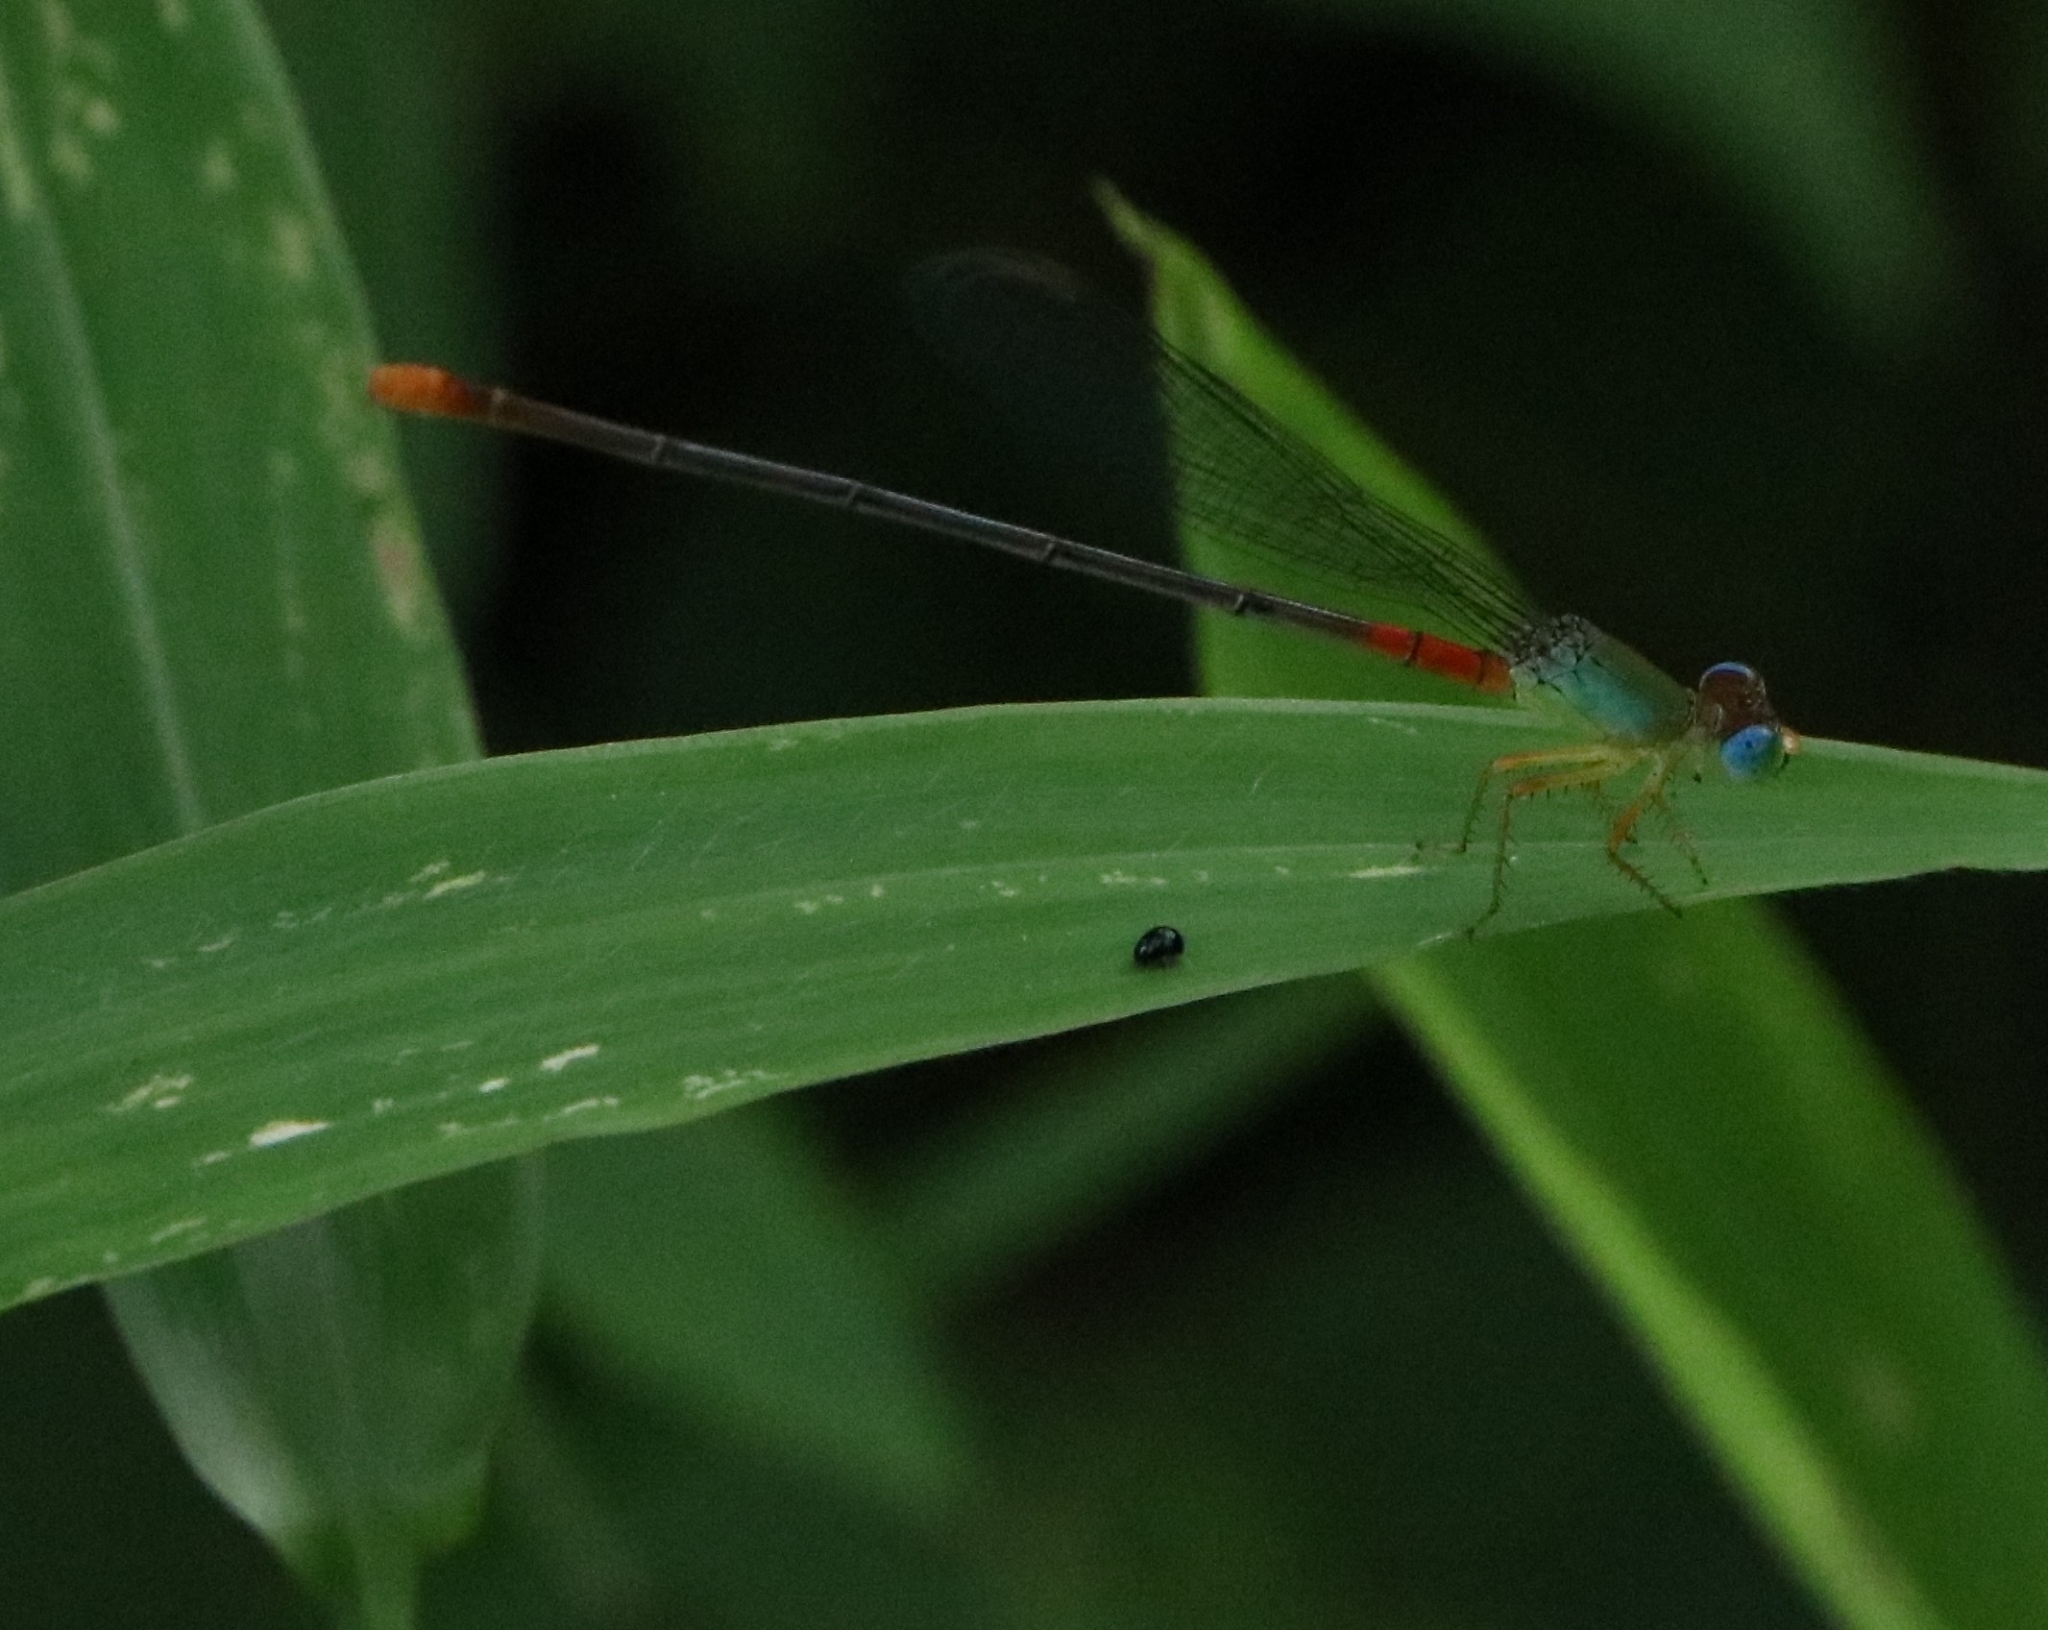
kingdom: Animalia
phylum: Arthropoda
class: Insecta
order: Odonata
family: Coenagrionidae
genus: Ceriagrion
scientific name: Ceriagrion cerinorubellum
